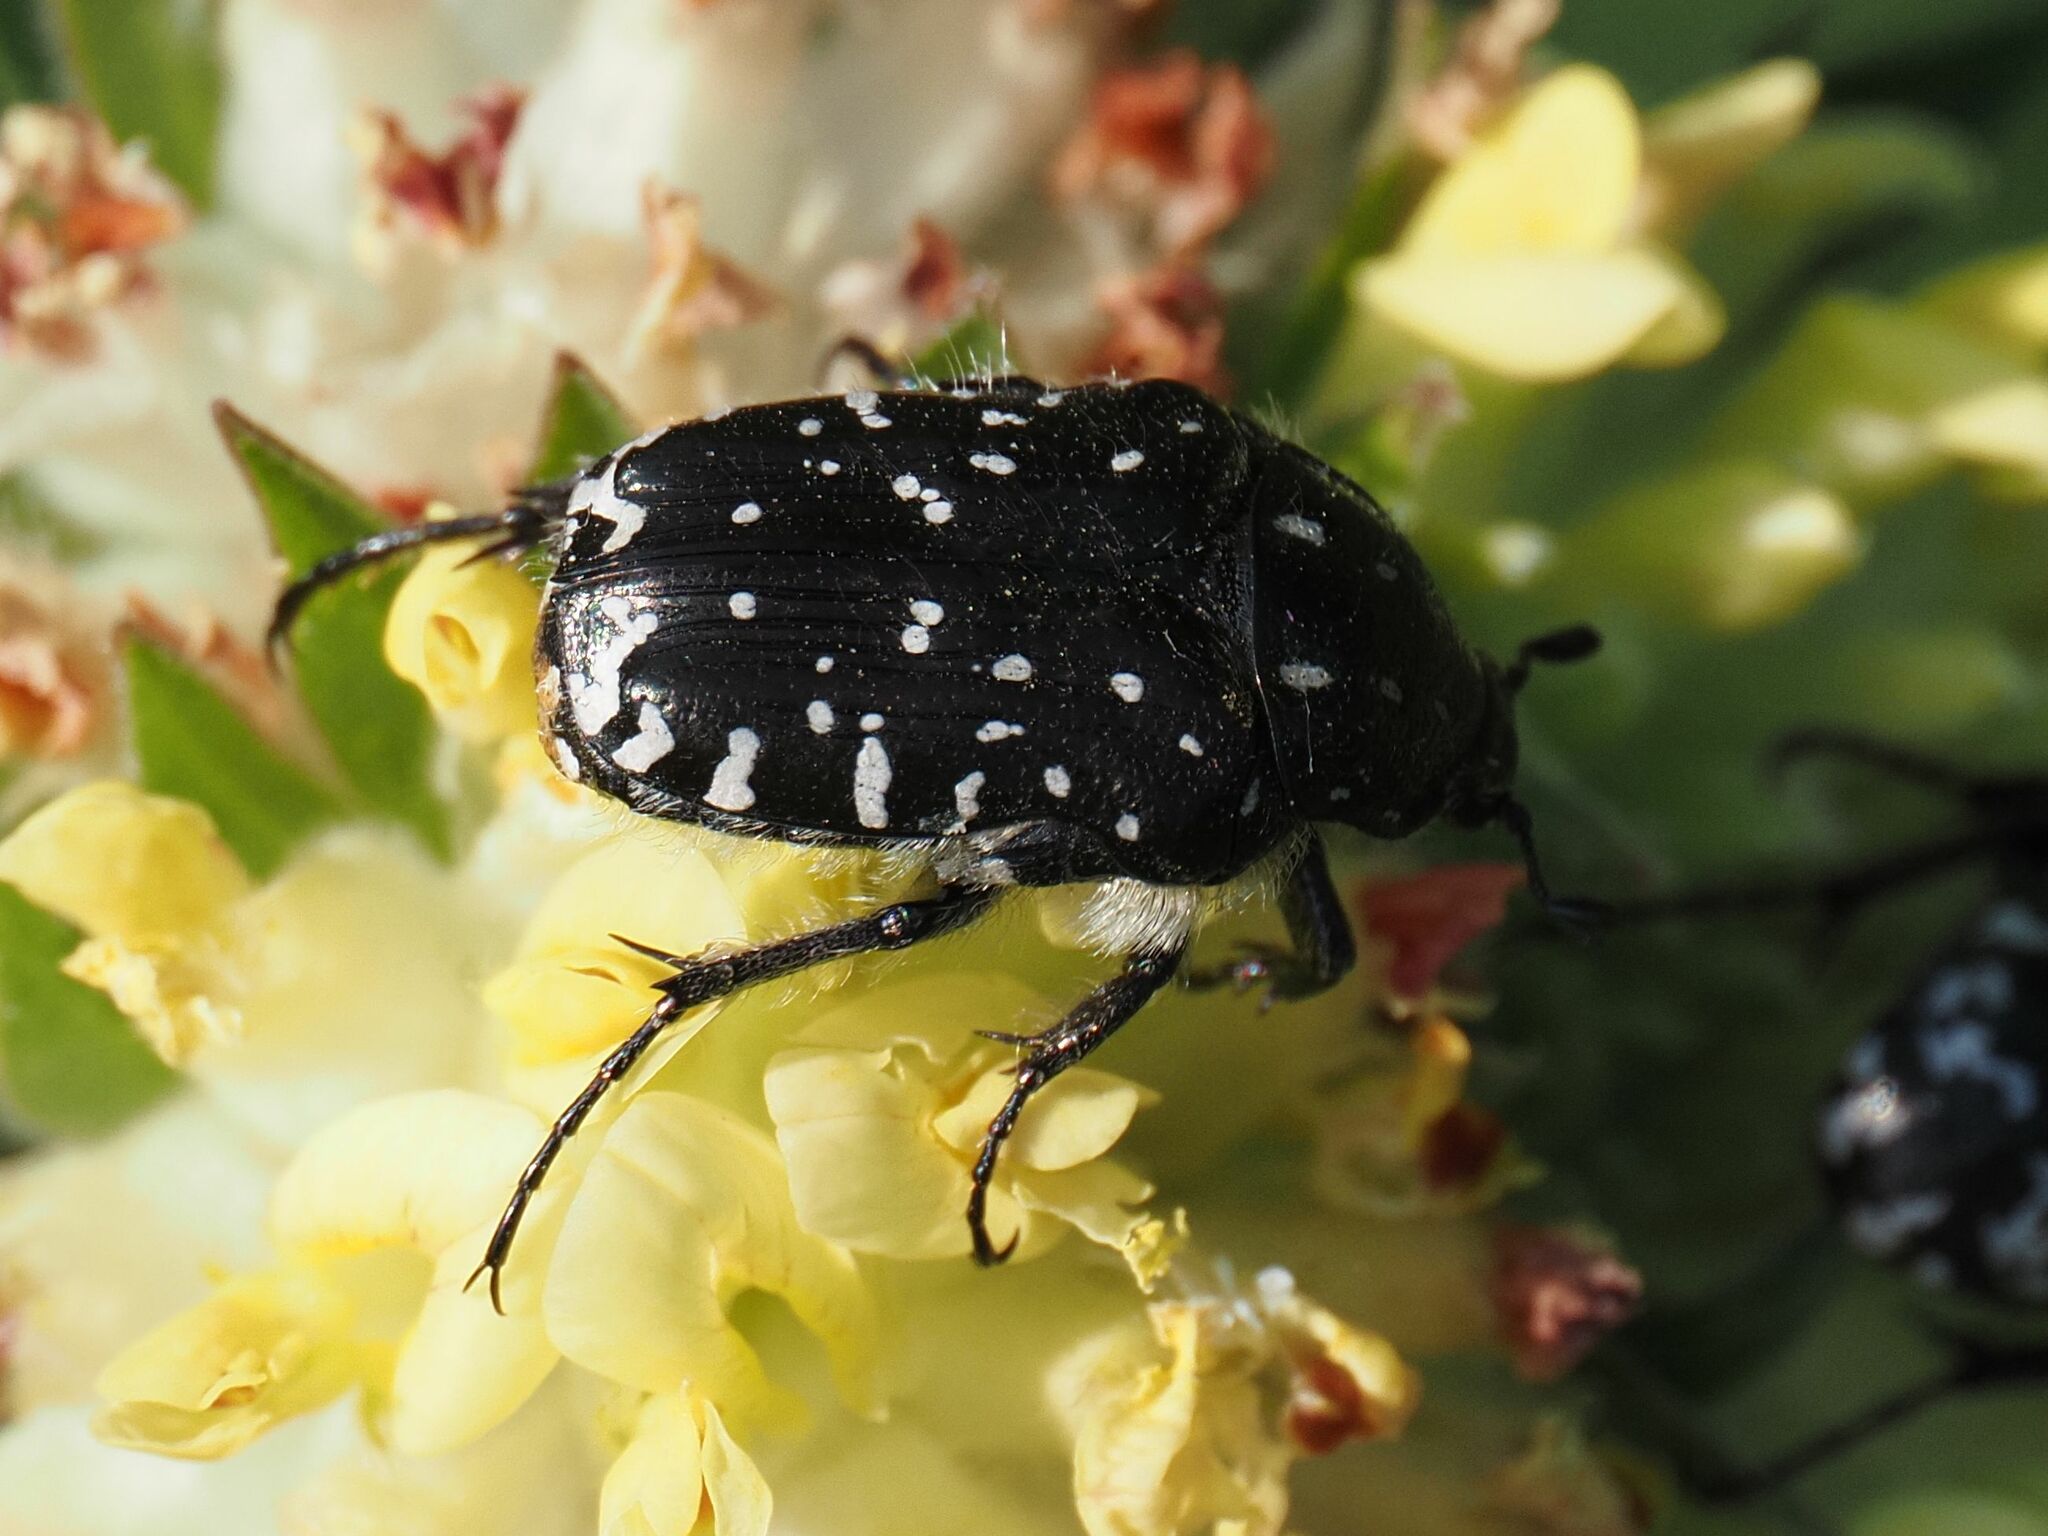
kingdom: Animalia
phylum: Arthropoda
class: Insecta
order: Coleoptera
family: Scarabaeidae
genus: Oxythyrea
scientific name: Oxythyrea funesta
